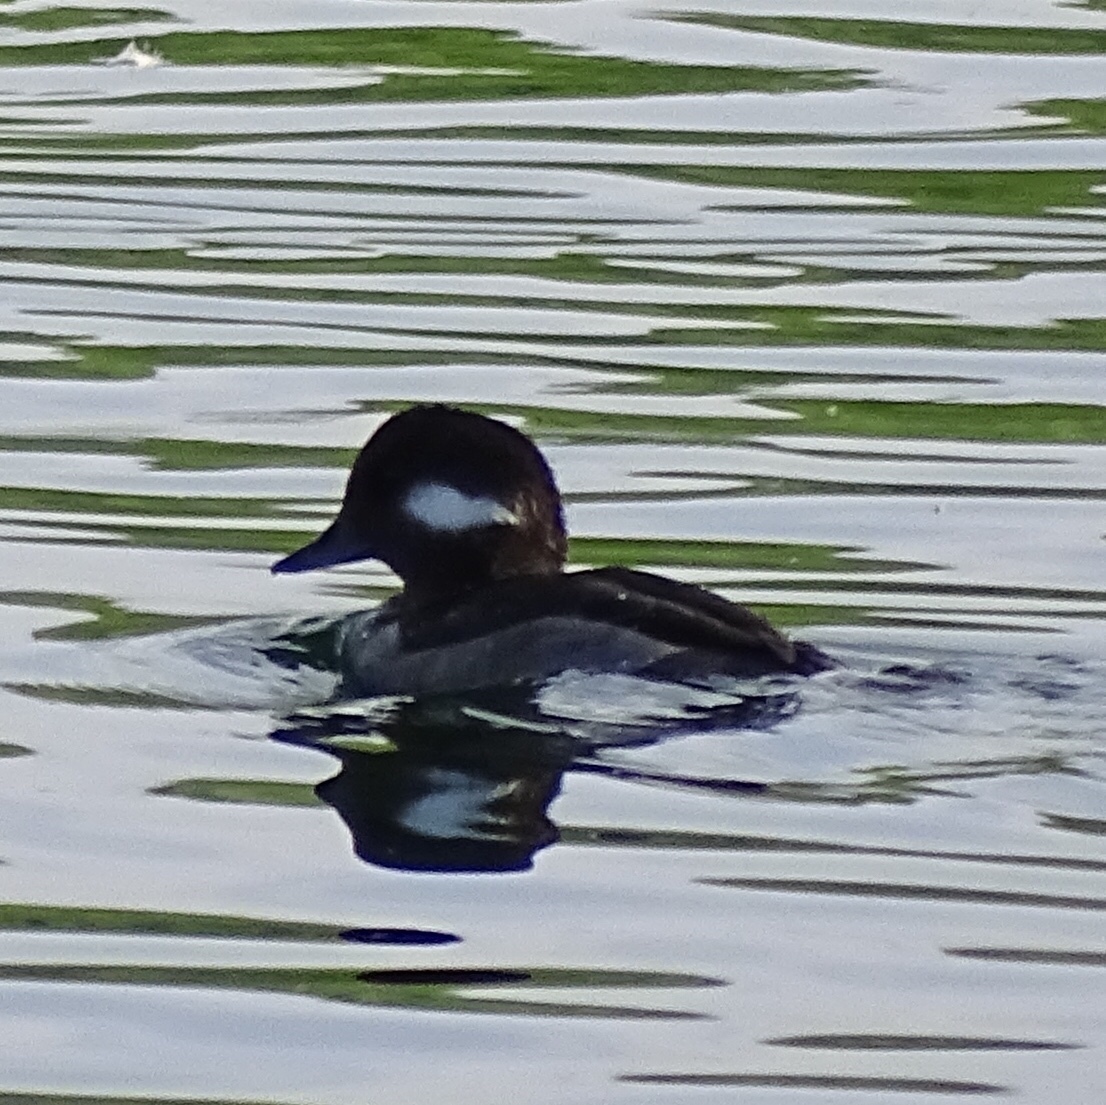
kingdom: Animalia
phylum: Chordata
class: Aves
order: Anseriformes
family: Anatidae
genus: Bucephala
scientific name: Bucephala albeola
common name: Bufflehead
